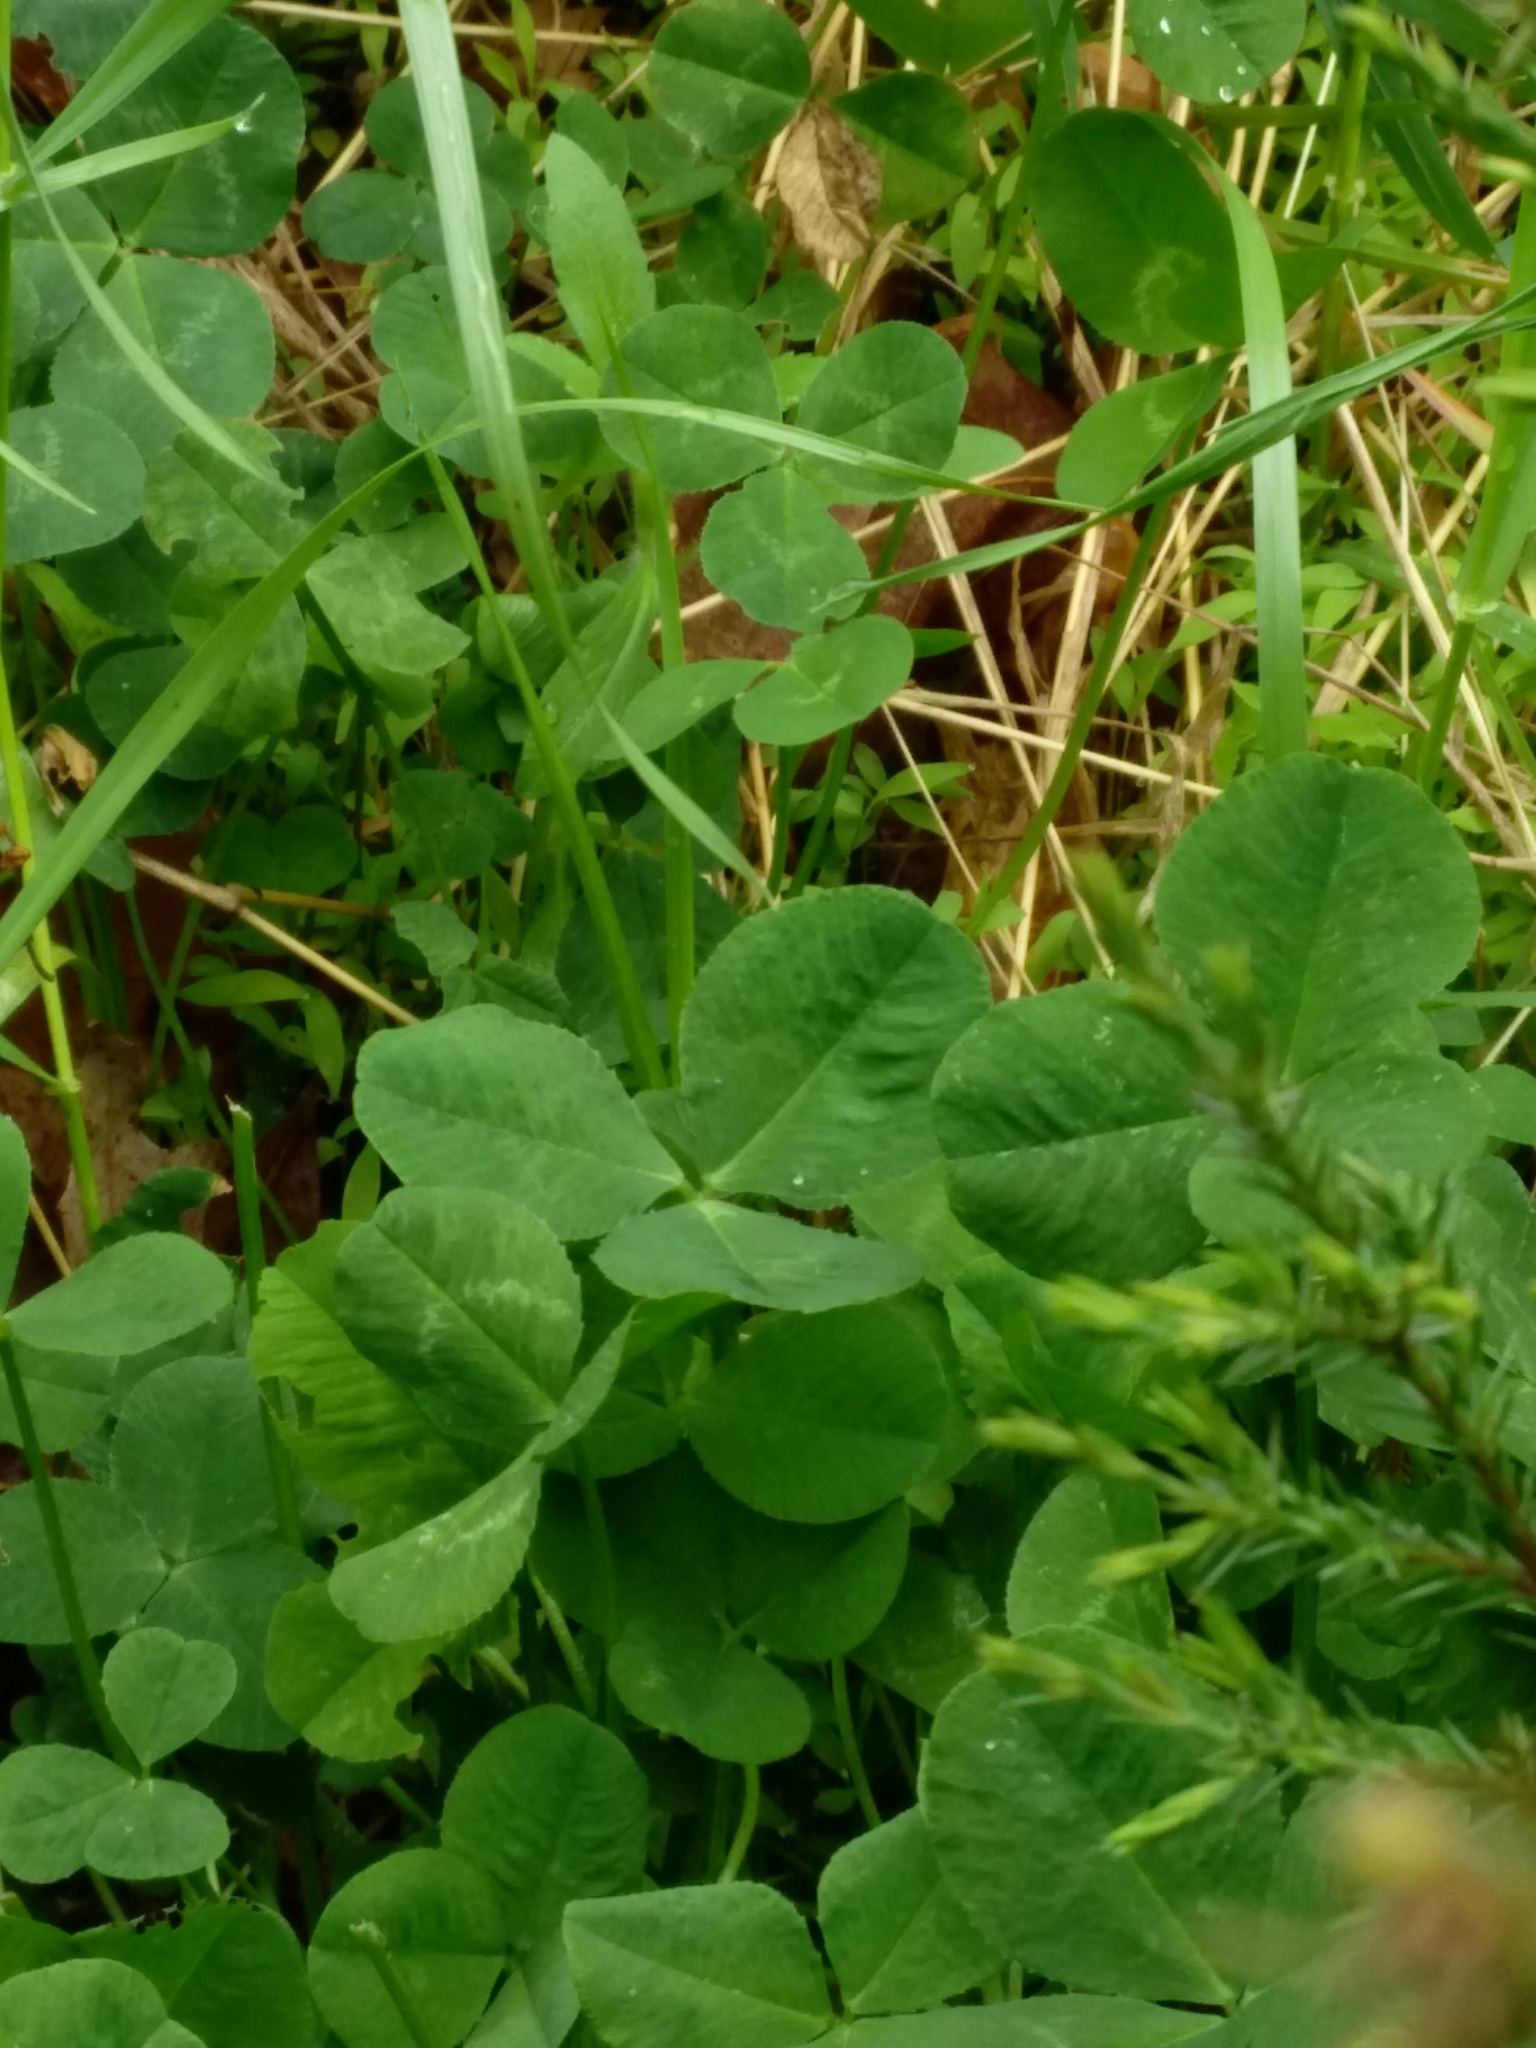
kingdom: Plantae
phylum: Tracheophyta
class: Magnoliopsida
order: Fabales
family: Fabaceae
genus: Trifolium
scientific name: Trifolium pratense
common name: Red clover
